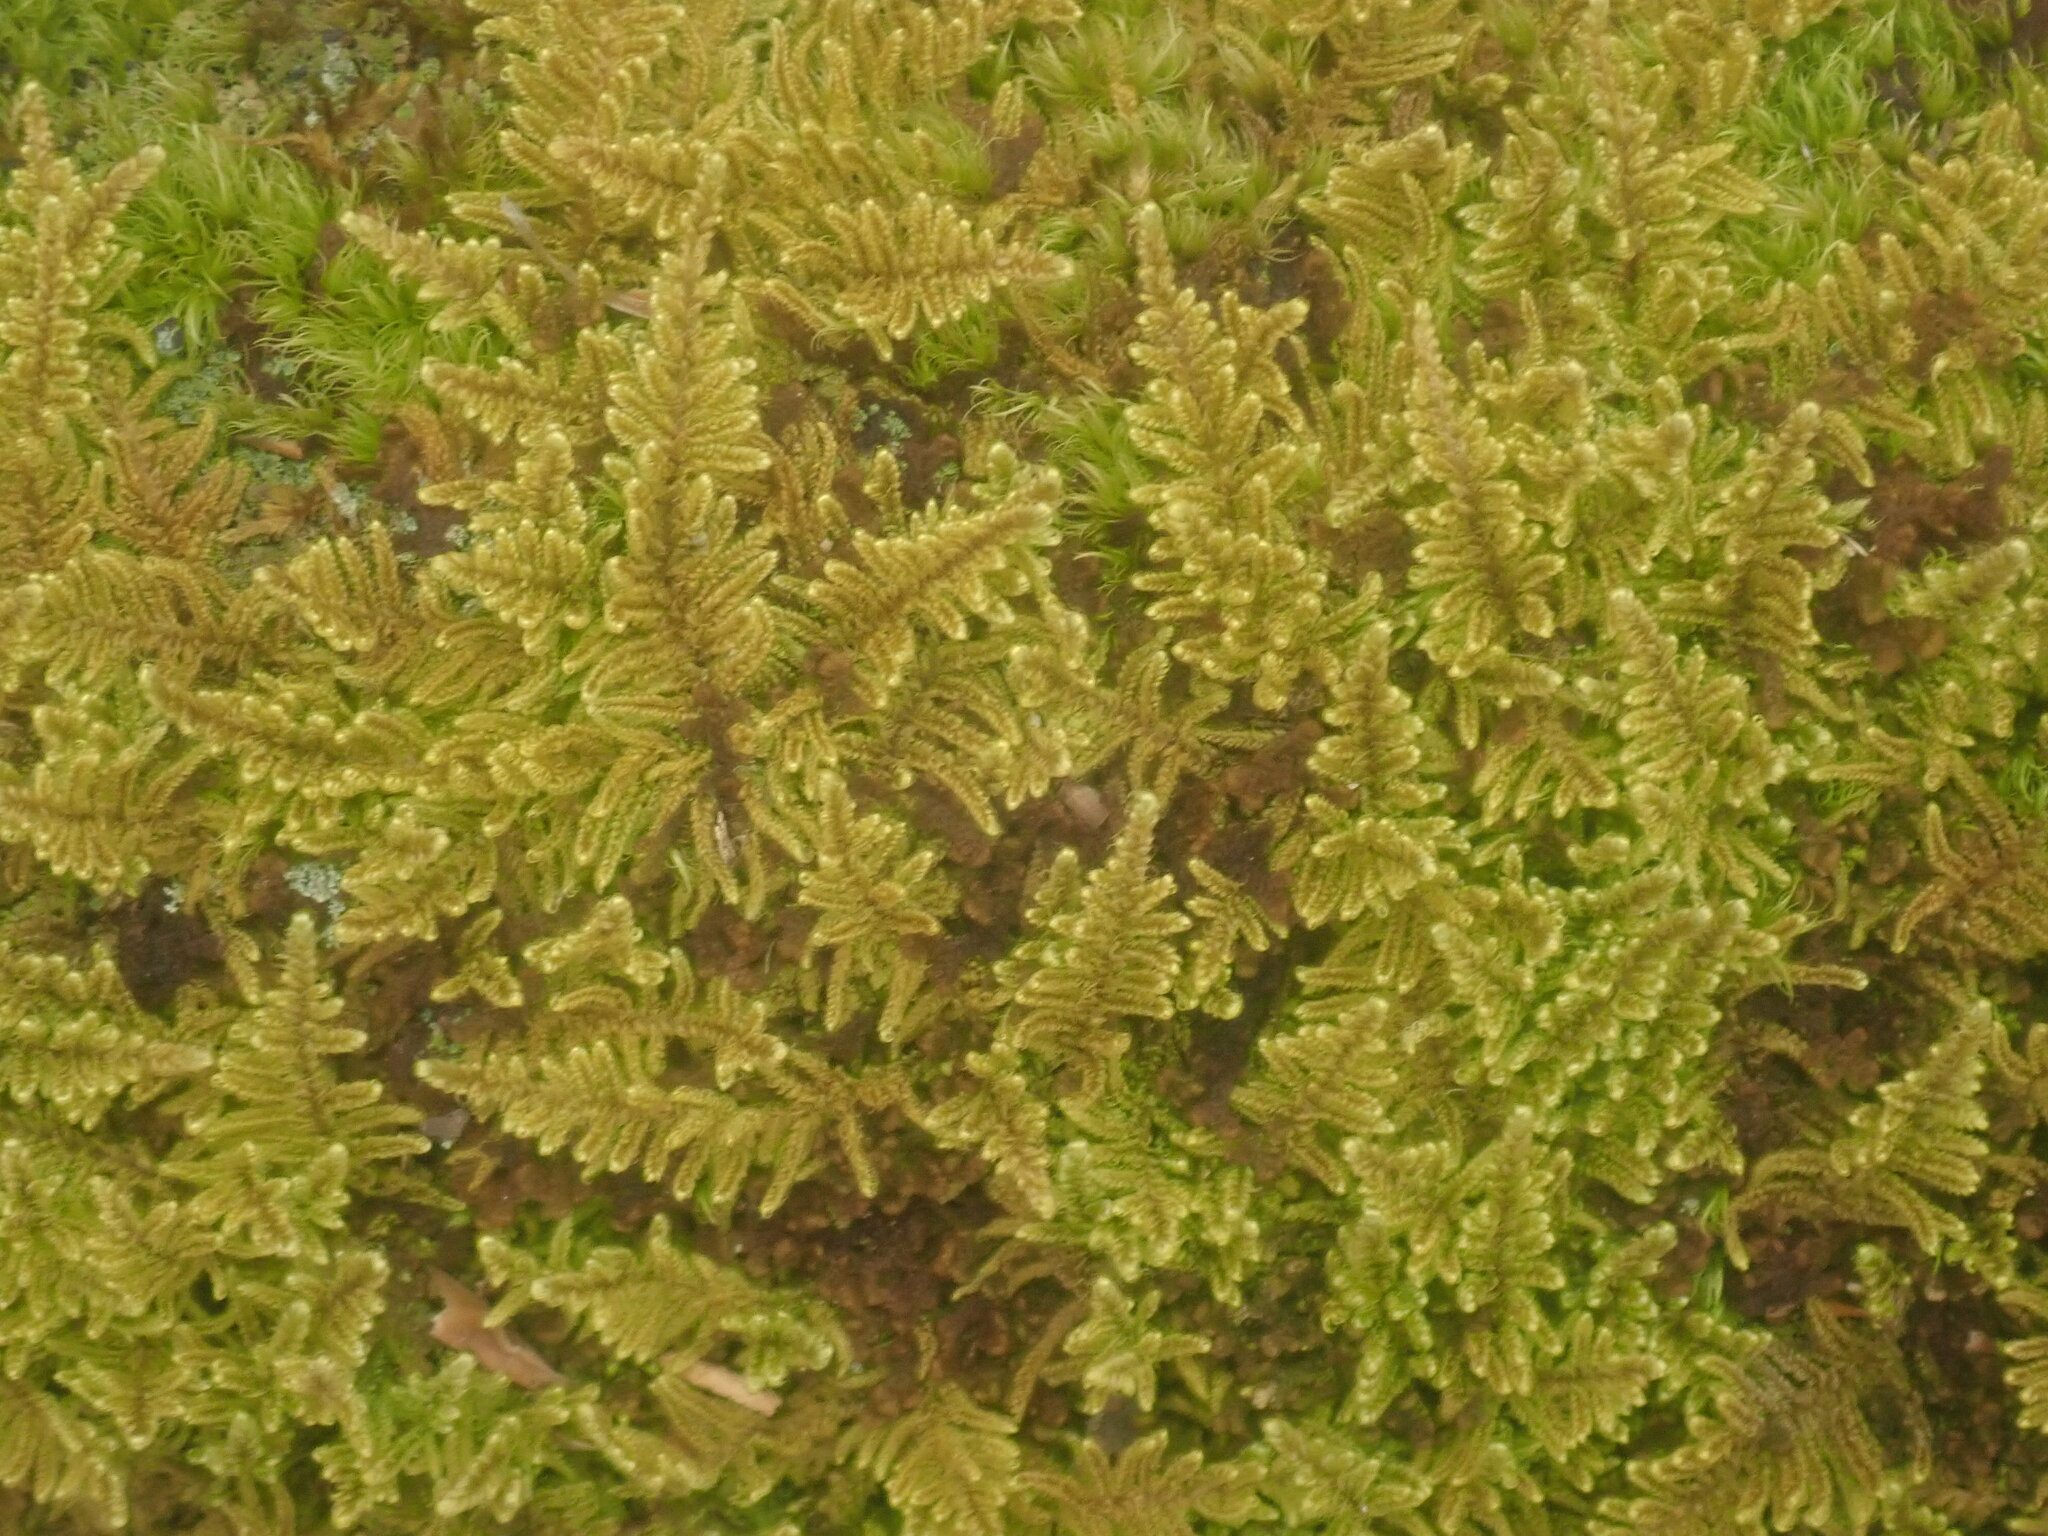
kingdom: Plantae
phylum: Bryophyta
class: Bryopsida
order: Hypnales
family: Callicladiaceae
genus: Callicladium
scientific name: Callicladium imponens
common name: Brocade moss
